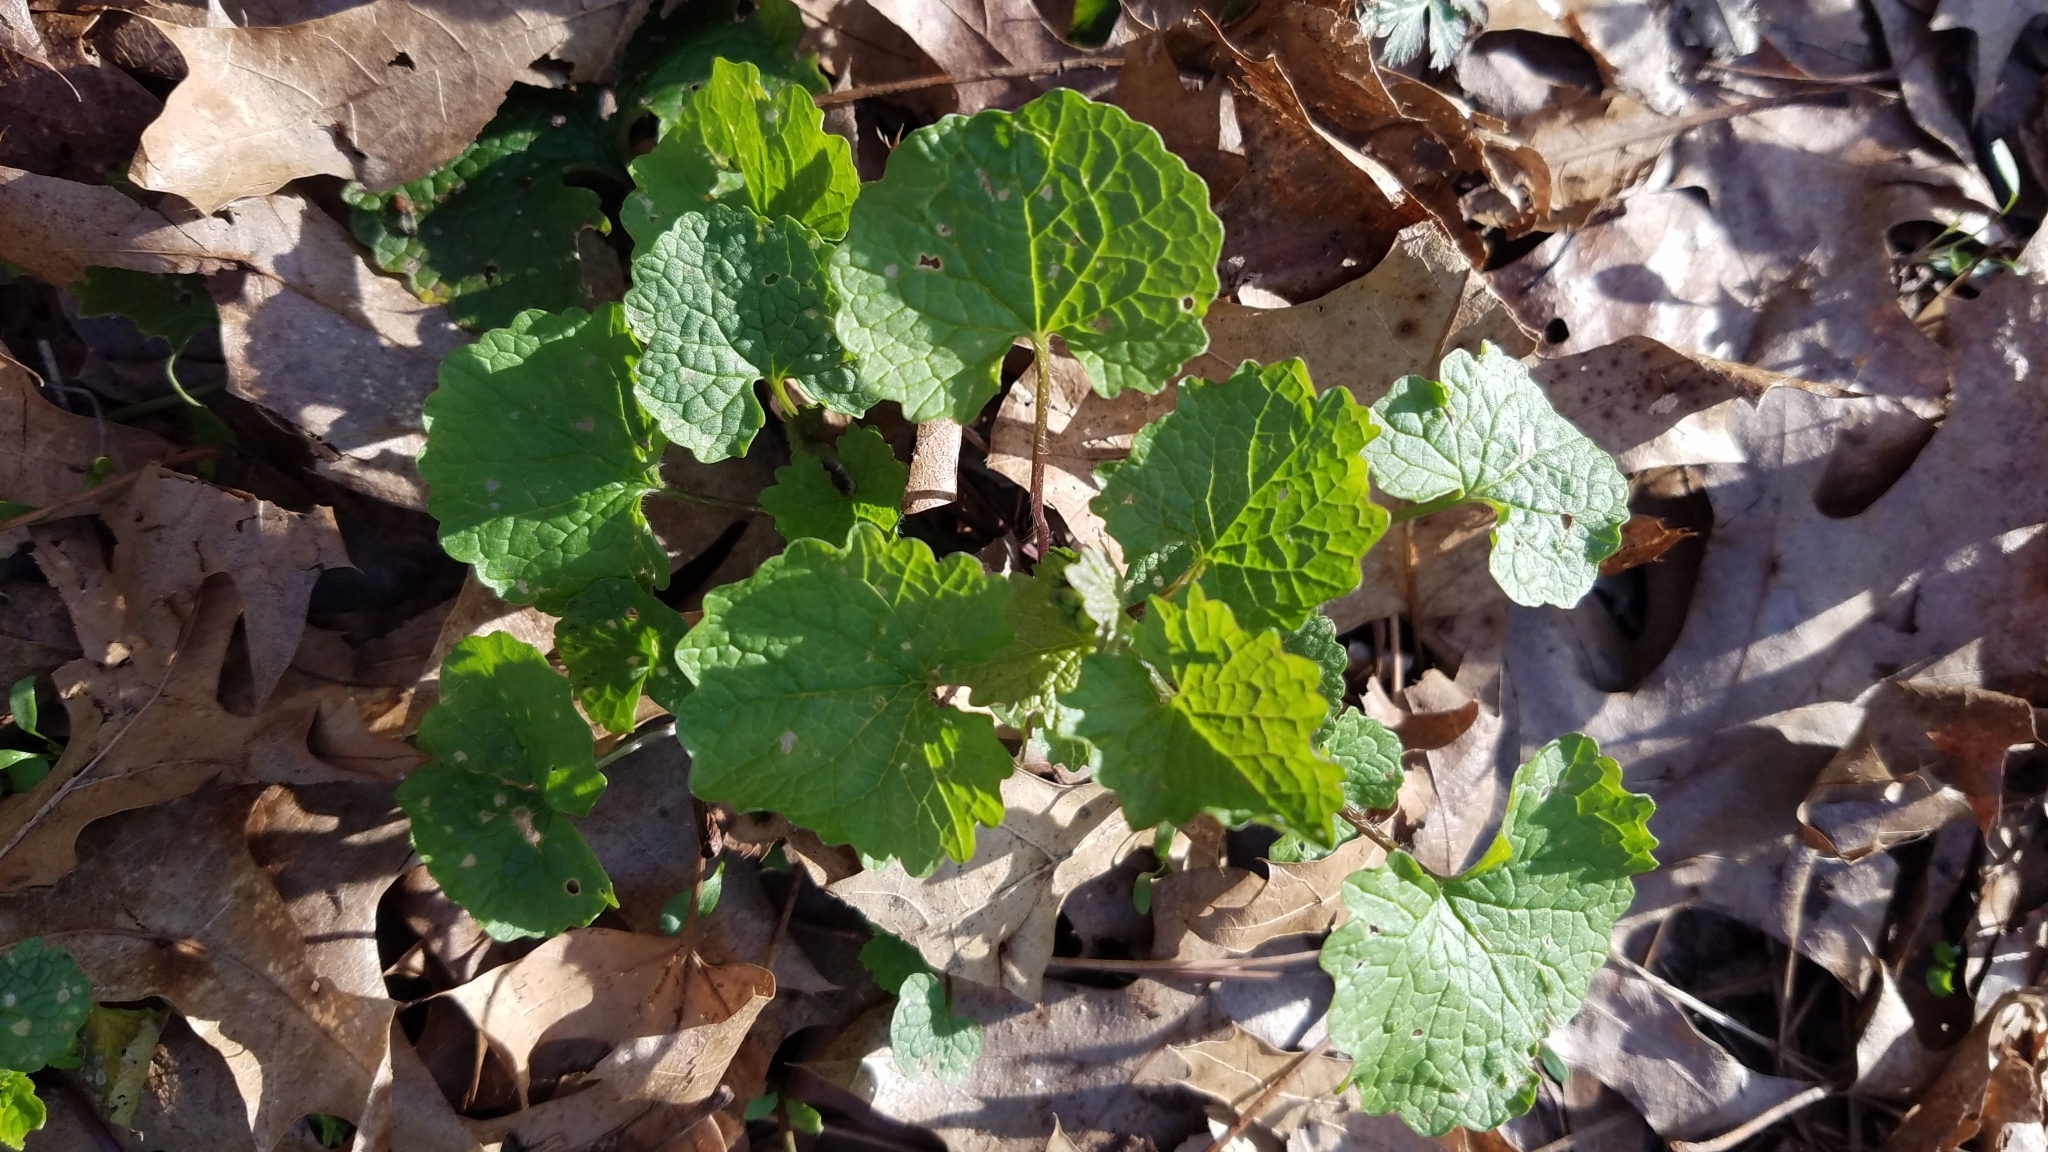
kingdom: Plantae
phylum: Tracheophyta
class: Magnoliopsida
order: Brassicales
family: Brassicaceae
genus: Alliaria
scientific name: Alliaria petiolata
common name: Garlic mustard
